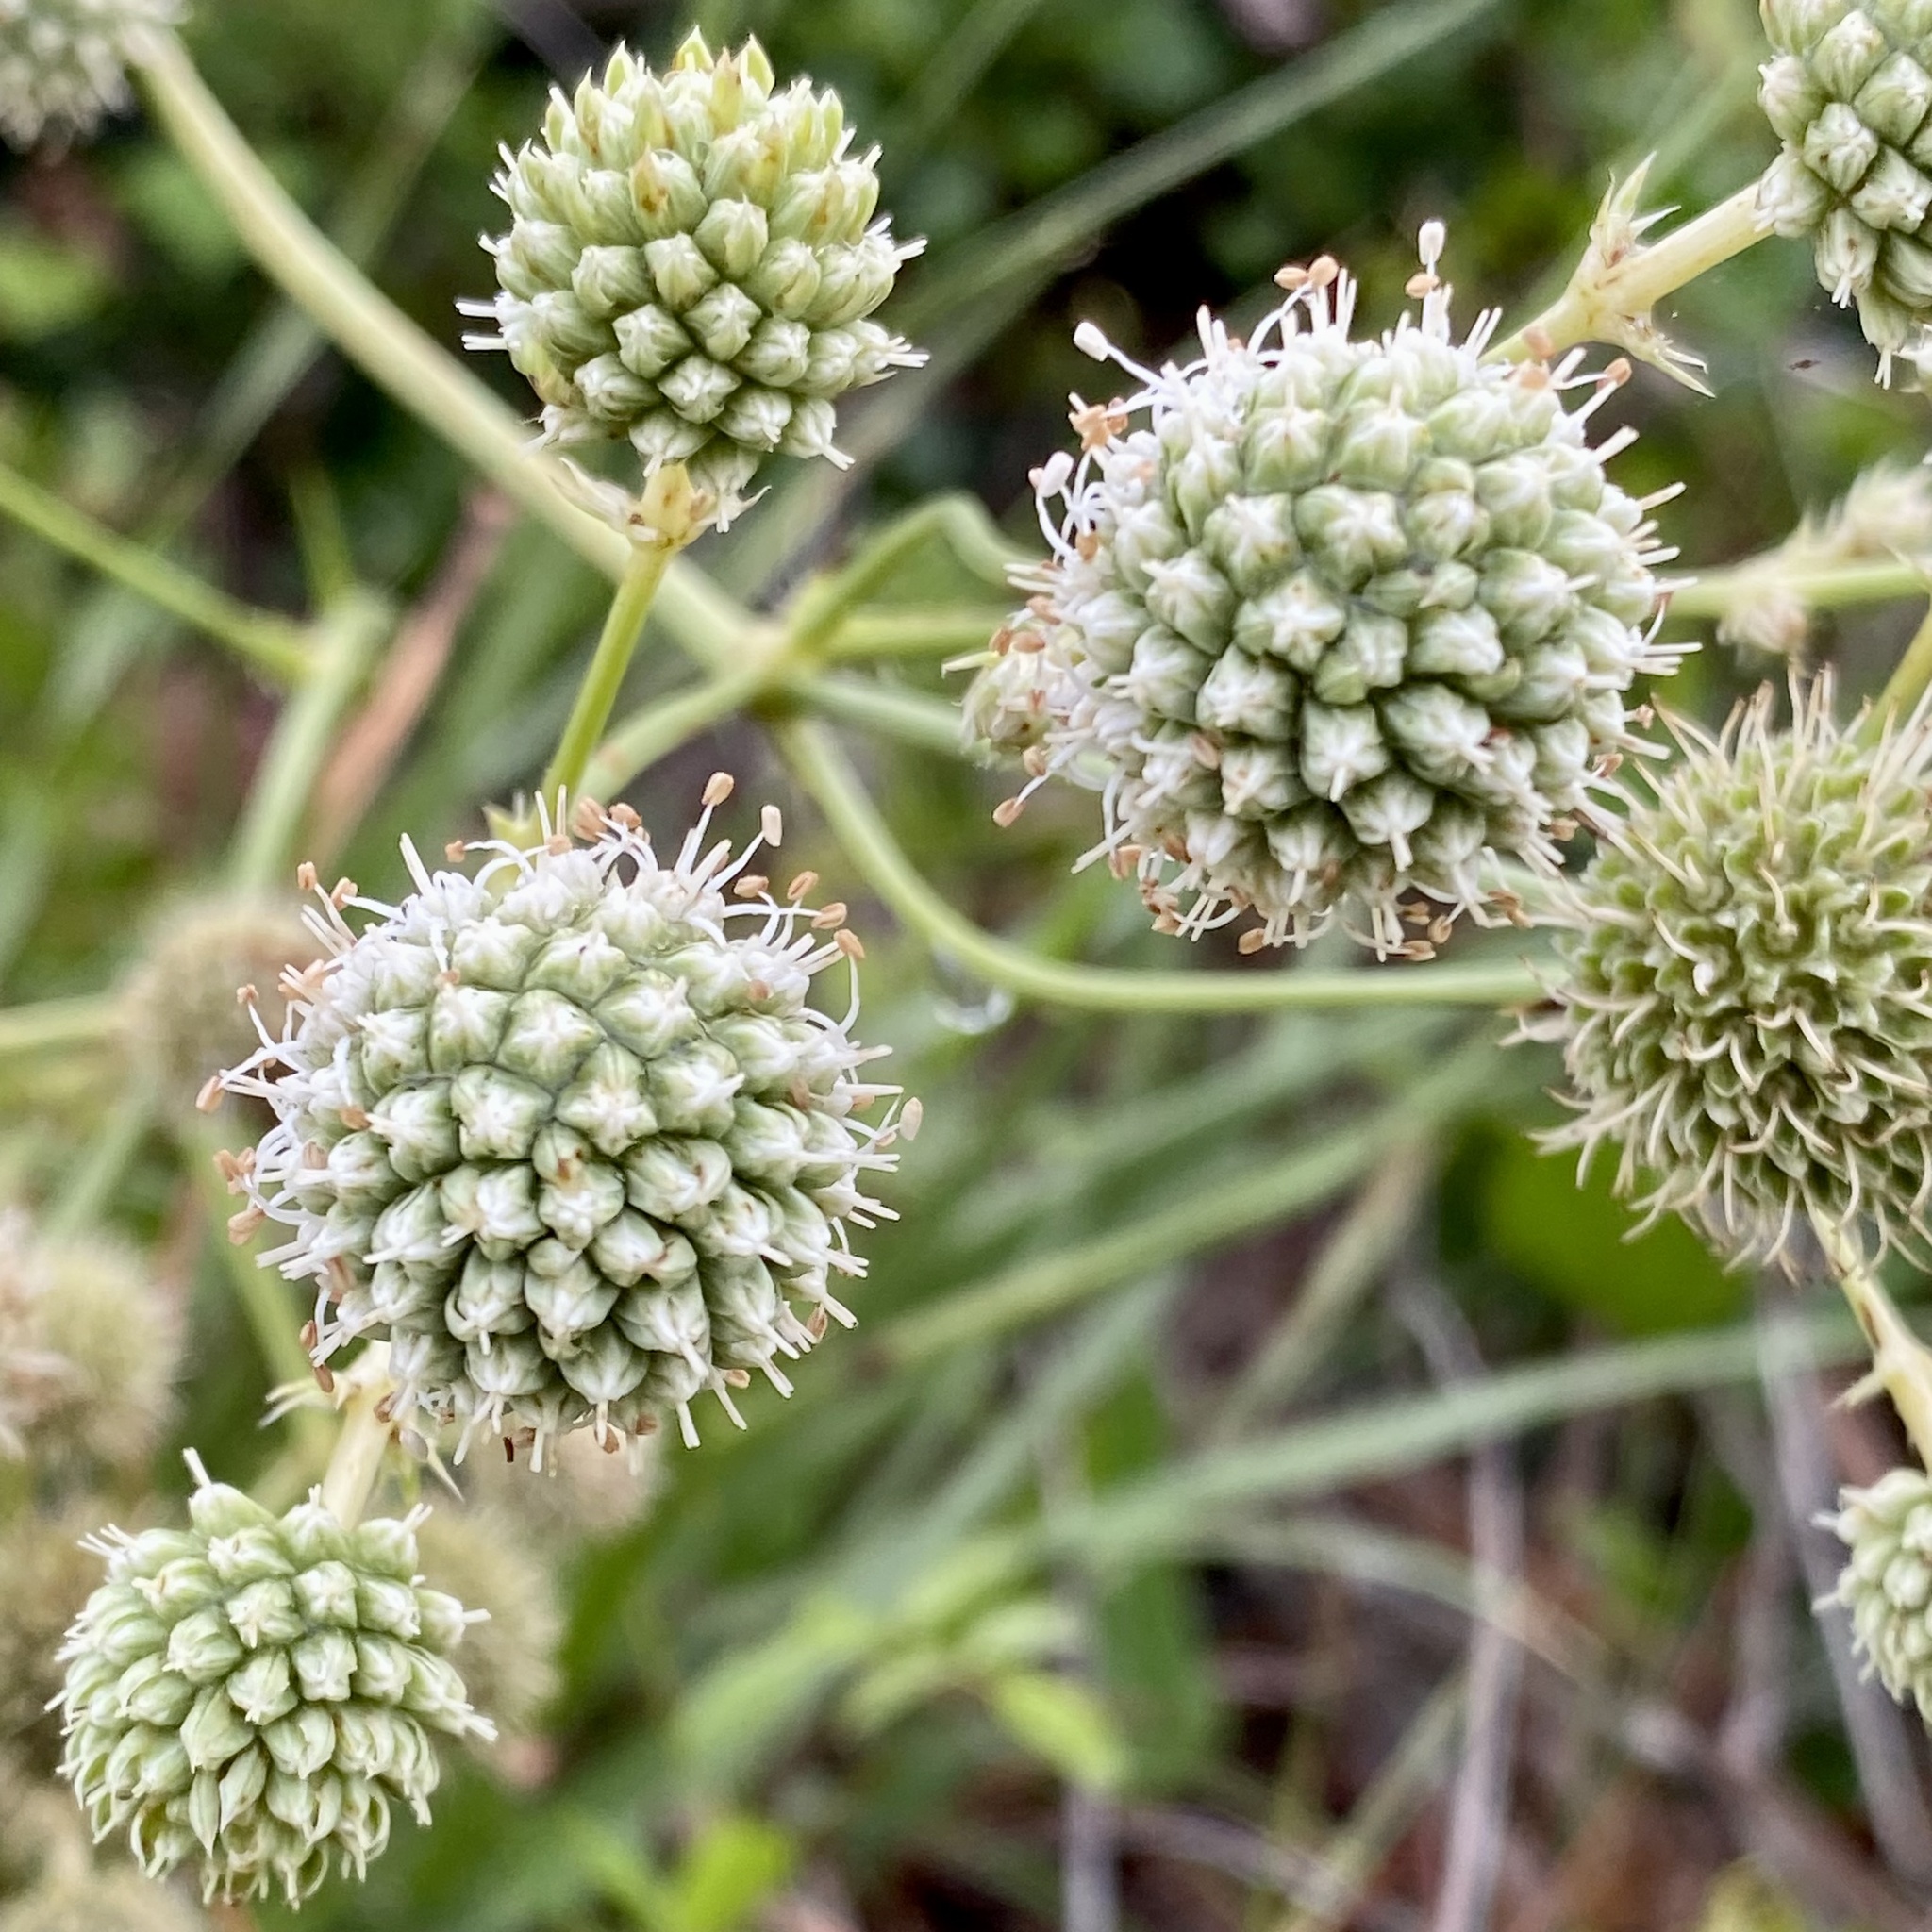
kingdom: Plantae
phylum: Tracheophyta
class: Magnoliopsida
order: Apiales
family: Apiaceae
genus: Eryngium
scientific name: Eryngium yuccifolium
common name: Button eryngo
